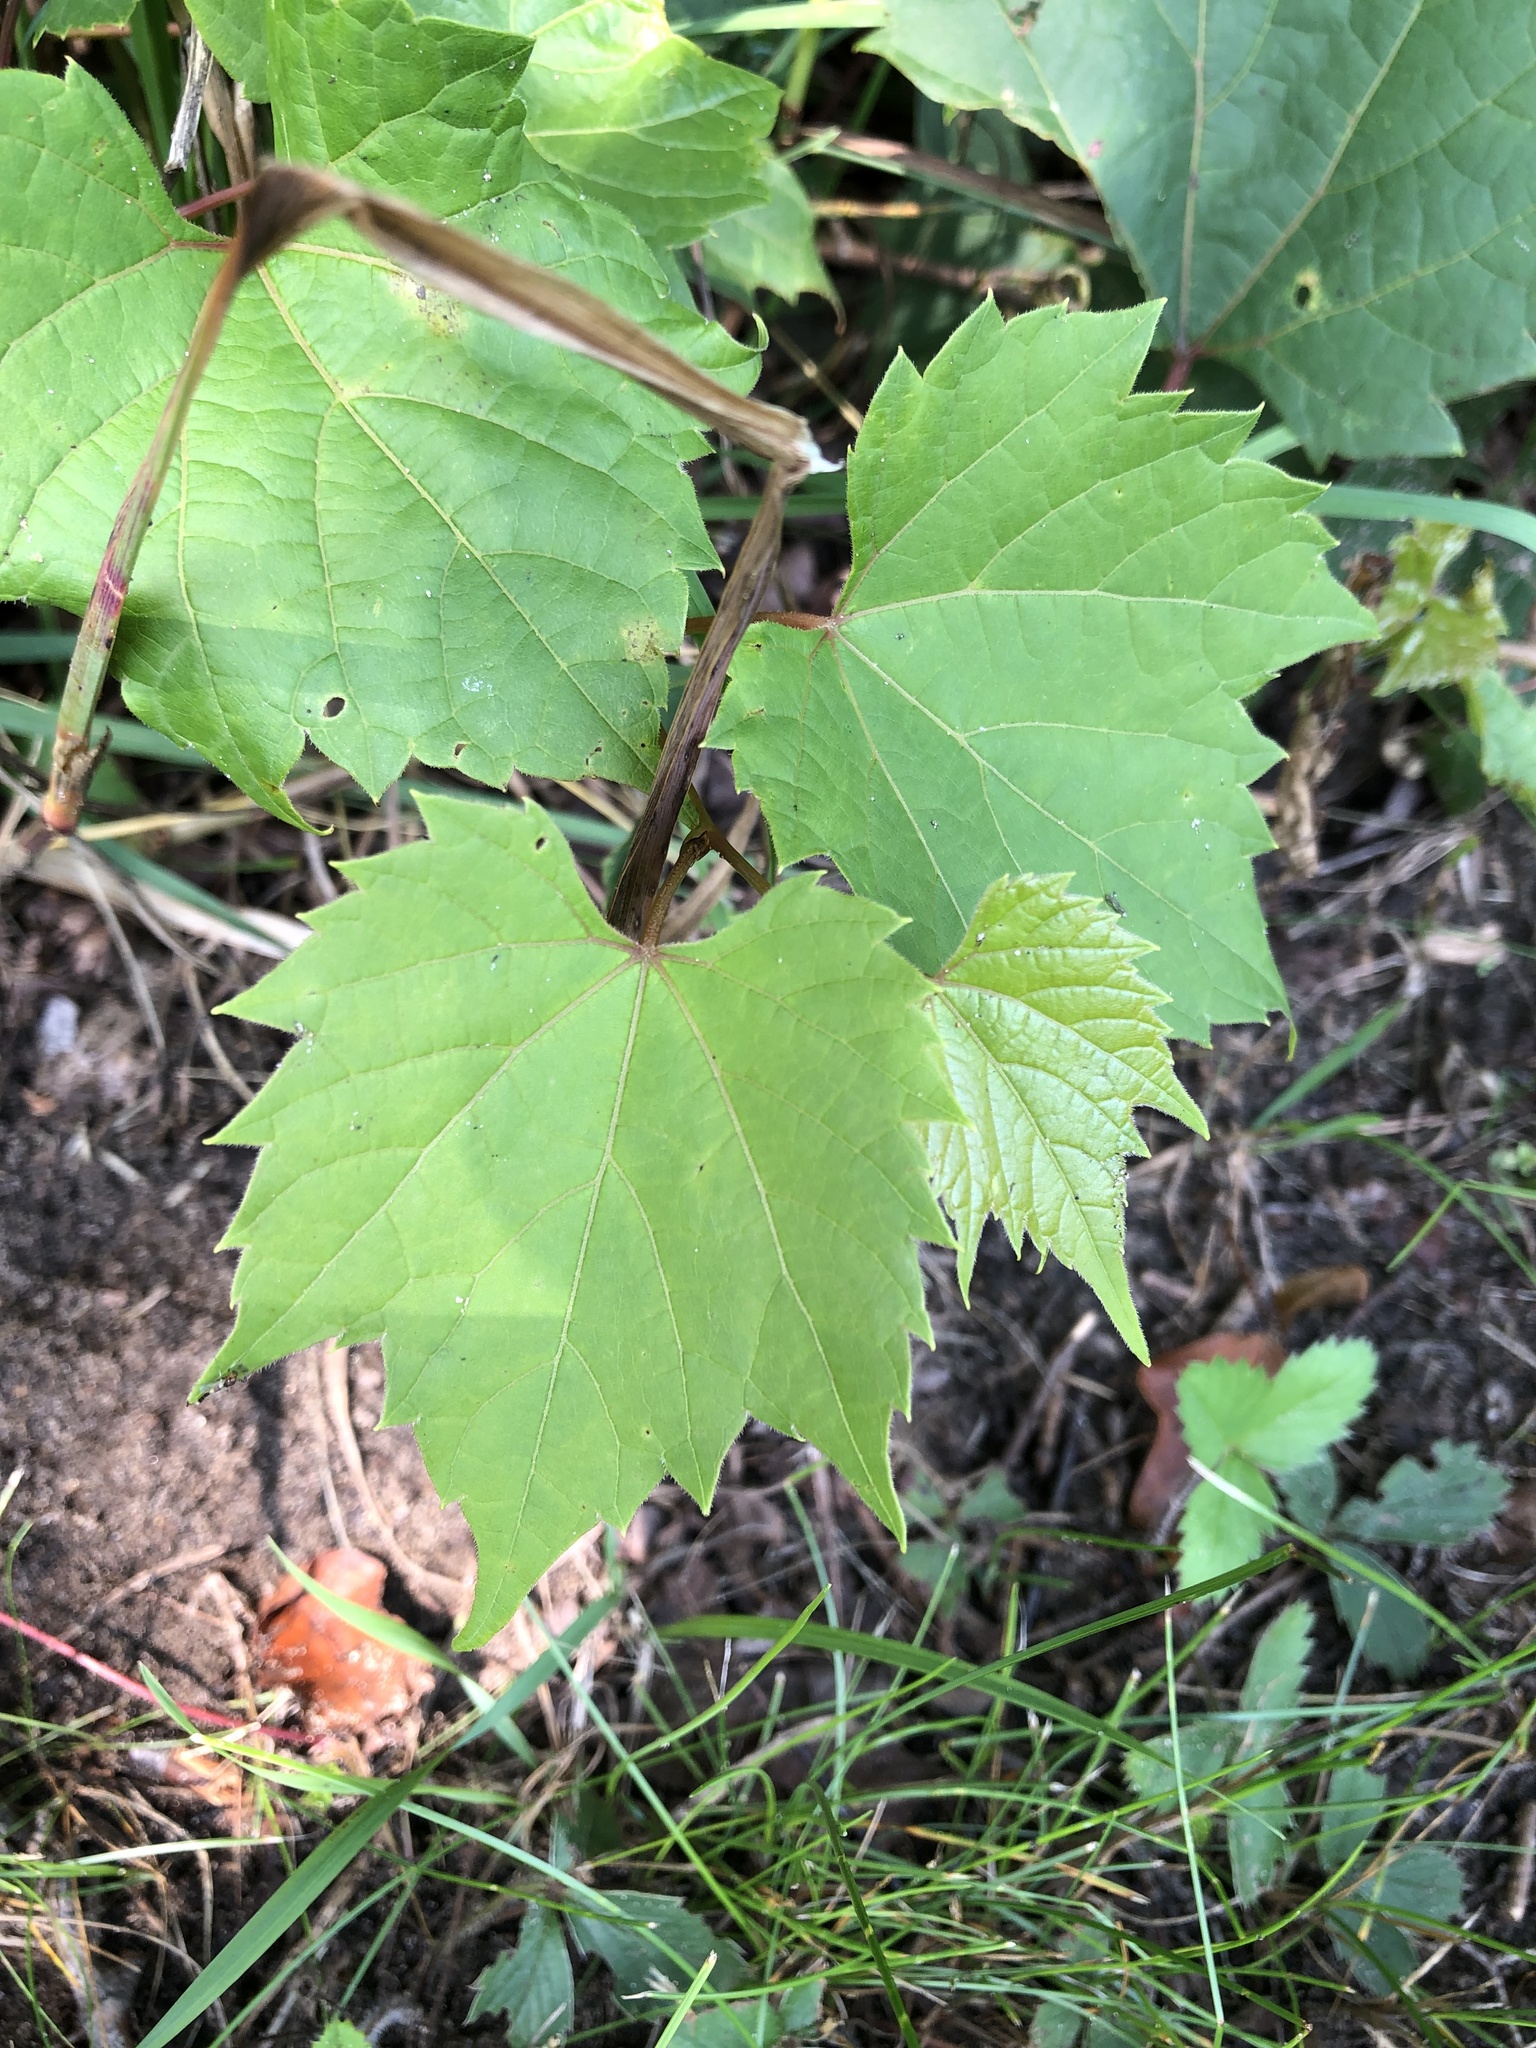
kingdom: Plantae
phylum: Tracheophyta
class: Magnoliopsida
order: Vitales
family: Vitaceae
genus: Vitis
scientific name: Vitis riparia
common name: Frost grape
